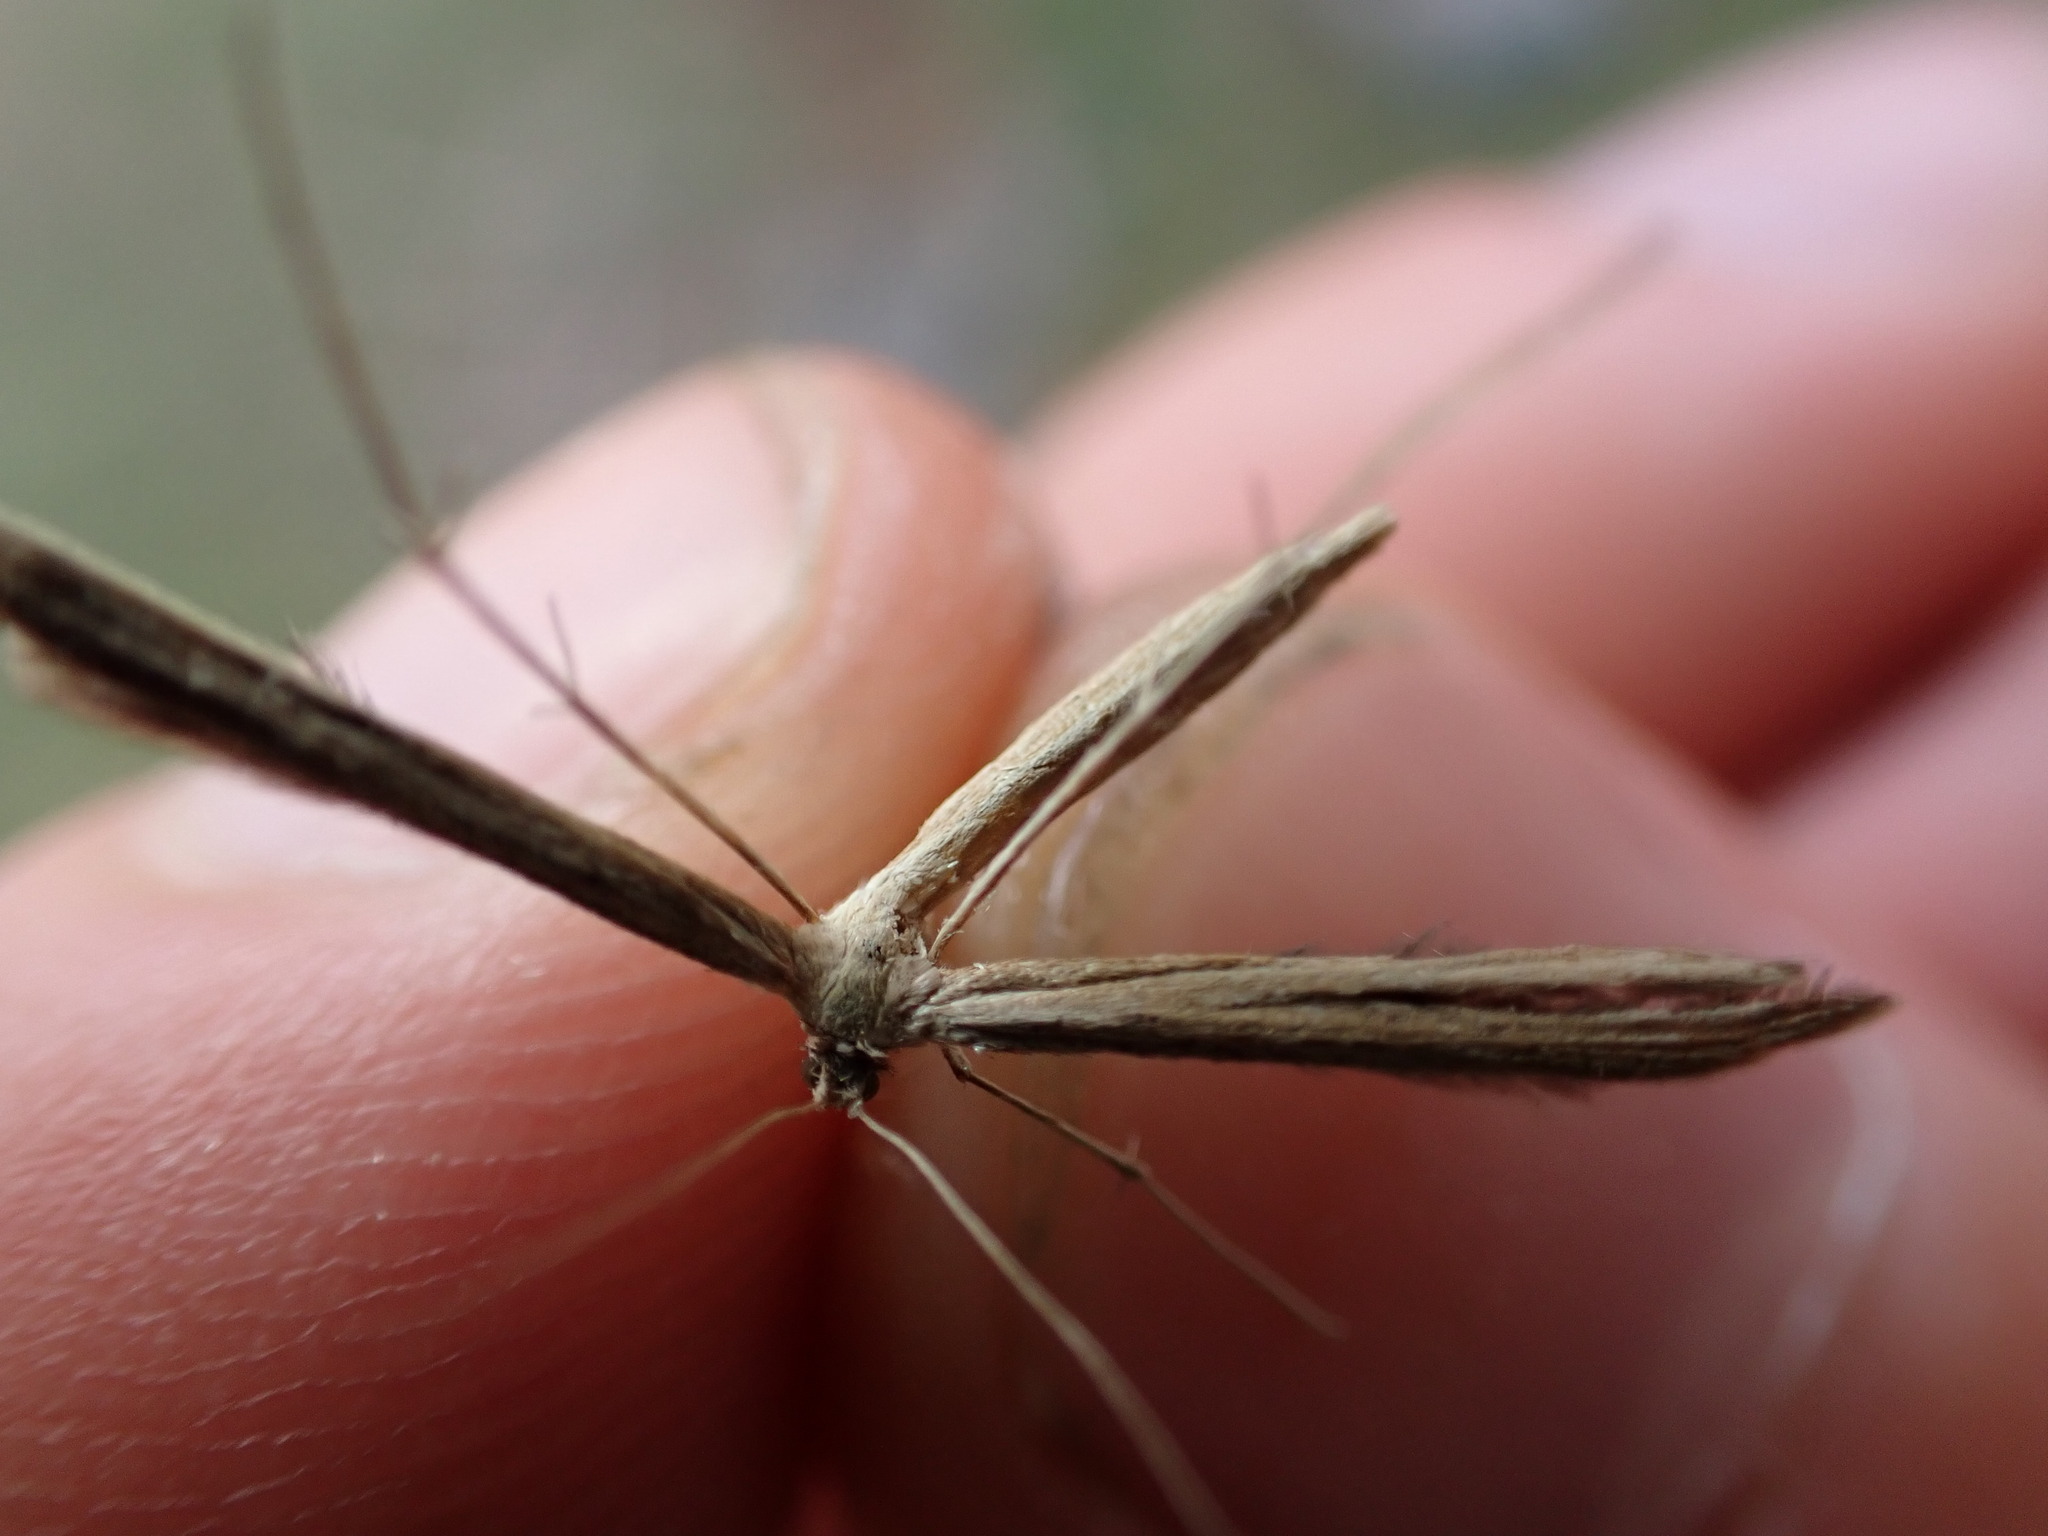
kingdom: Animalia
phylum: Arthropoda
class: Insecta
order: Lepidoptera
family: Pterophoridae
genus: Emmelina
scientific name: Emmelina monodactyla
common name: Common plume
